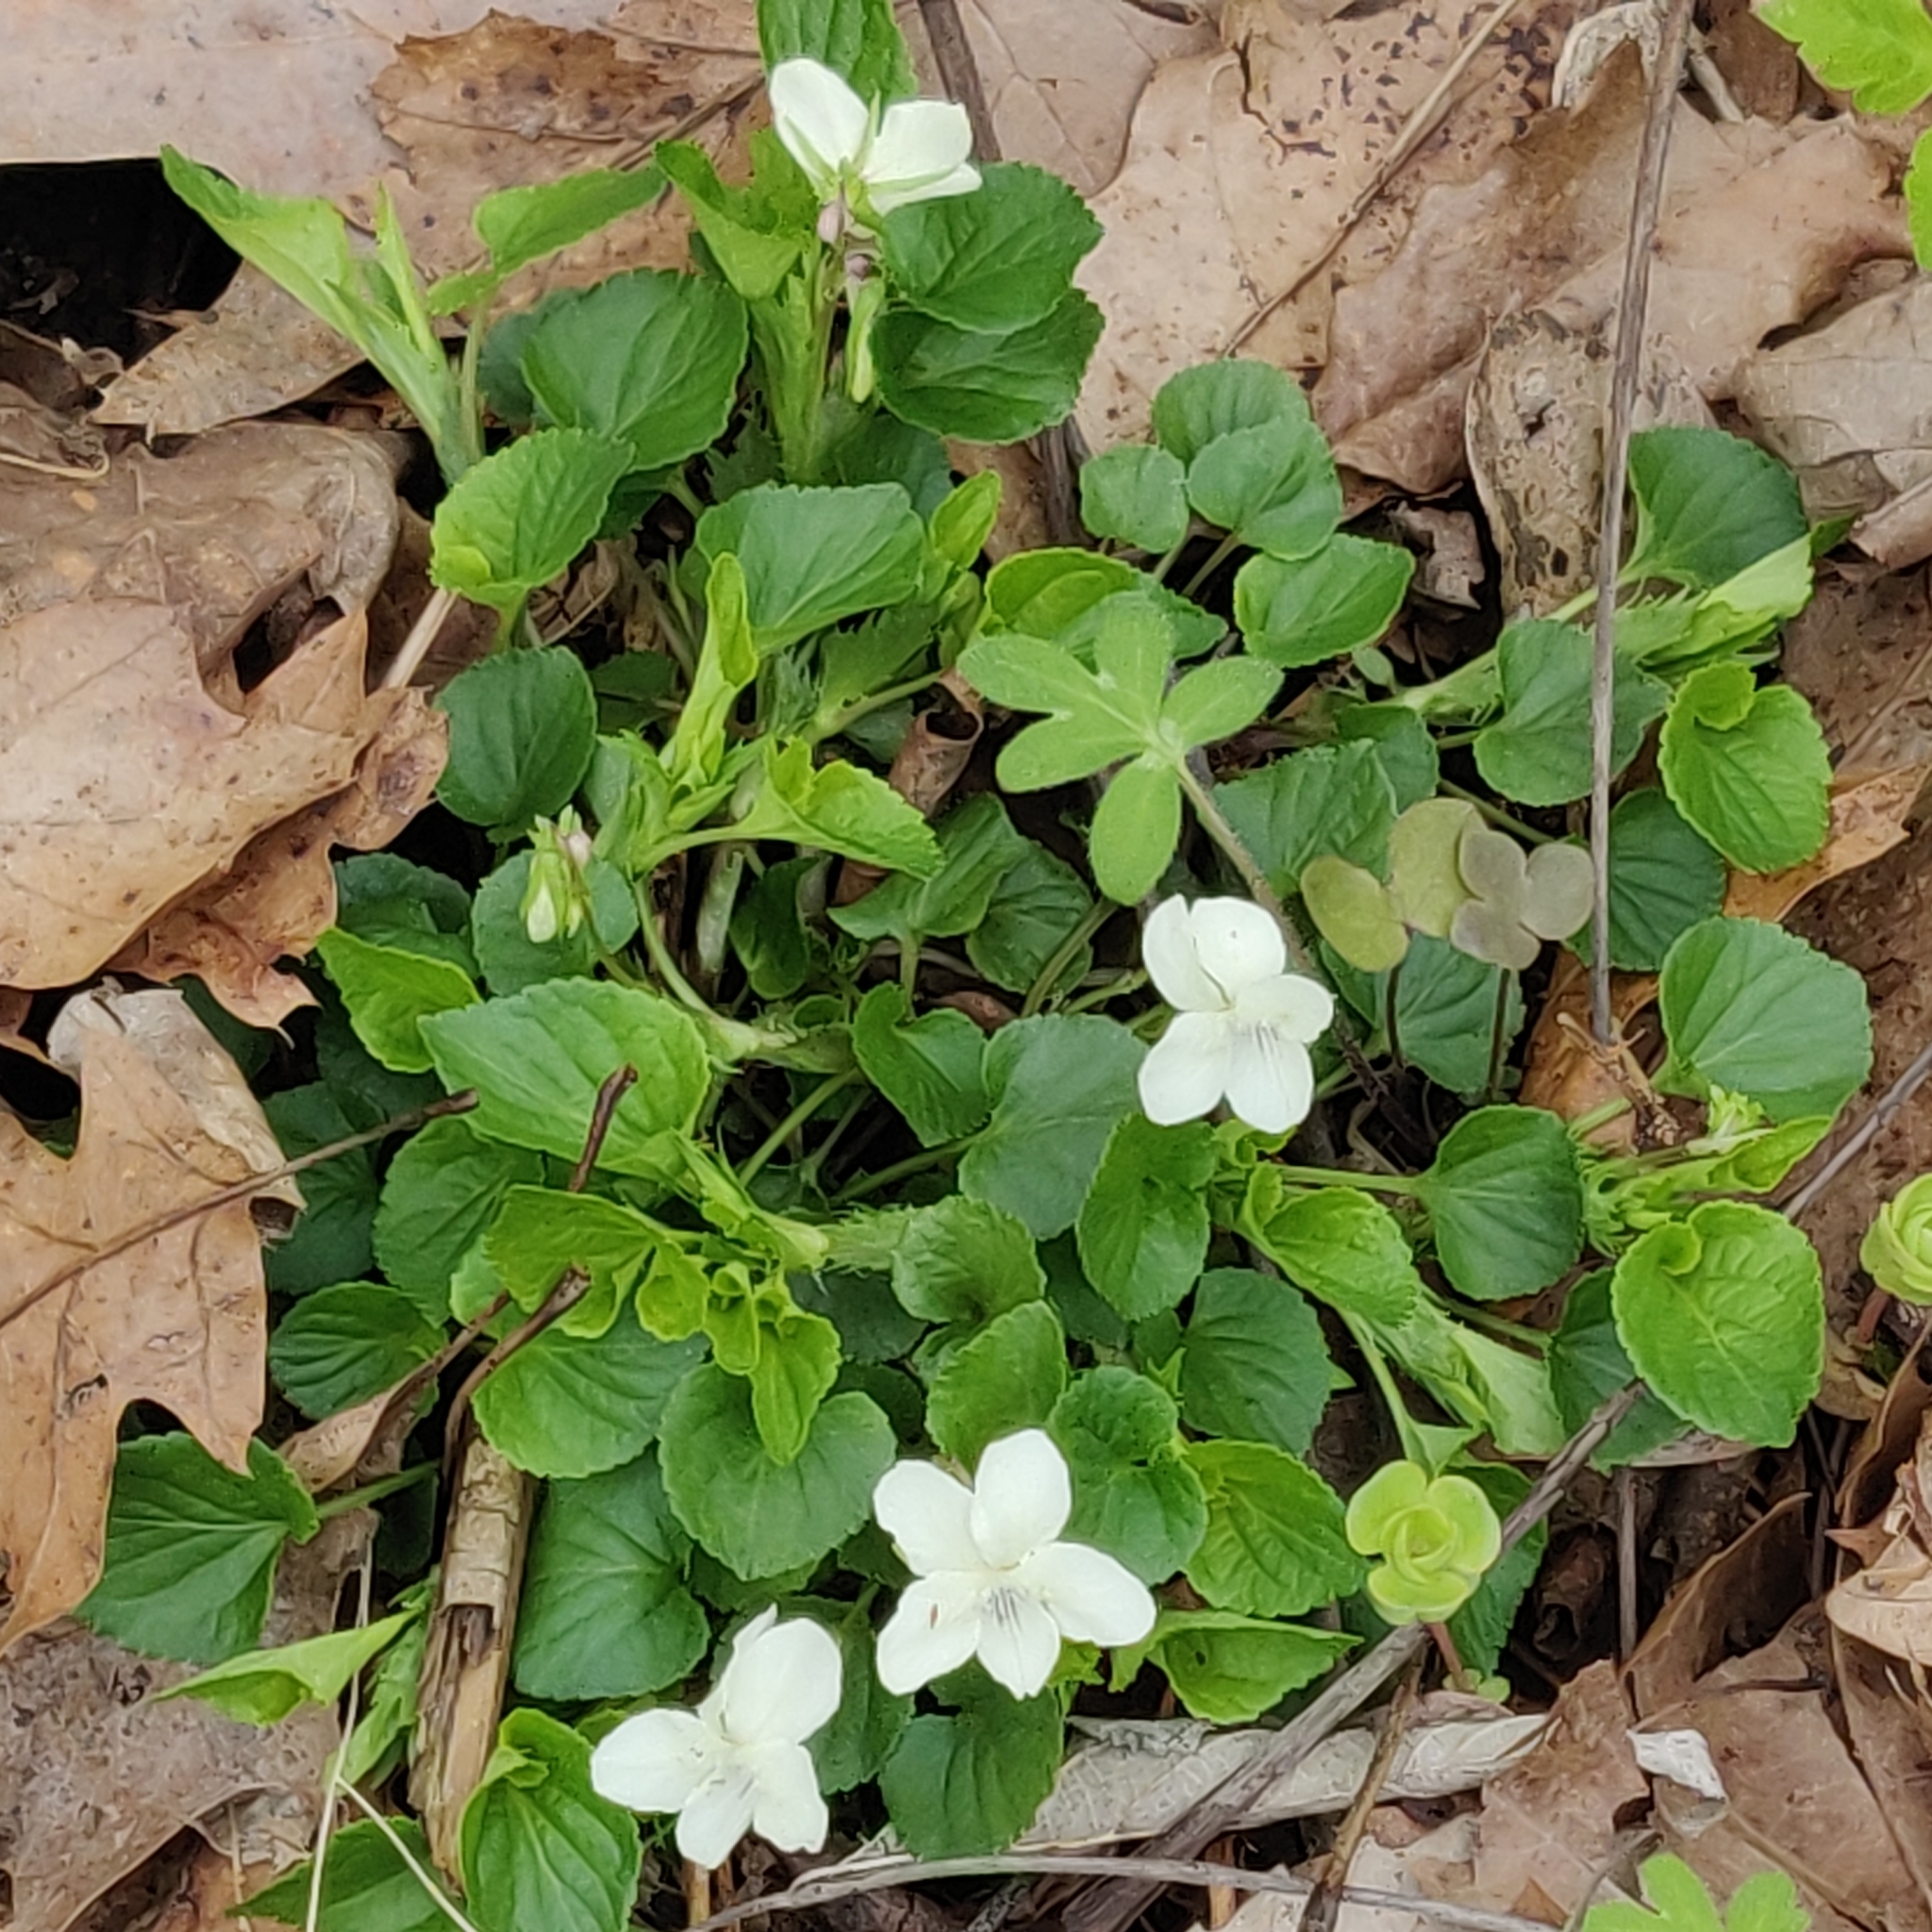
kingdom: Plantae
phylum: Tracheophyta
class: Magnoliopsida
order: Malpighiales
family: Violaceae
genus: Viola
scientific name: Viola striata
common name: Cream violet
